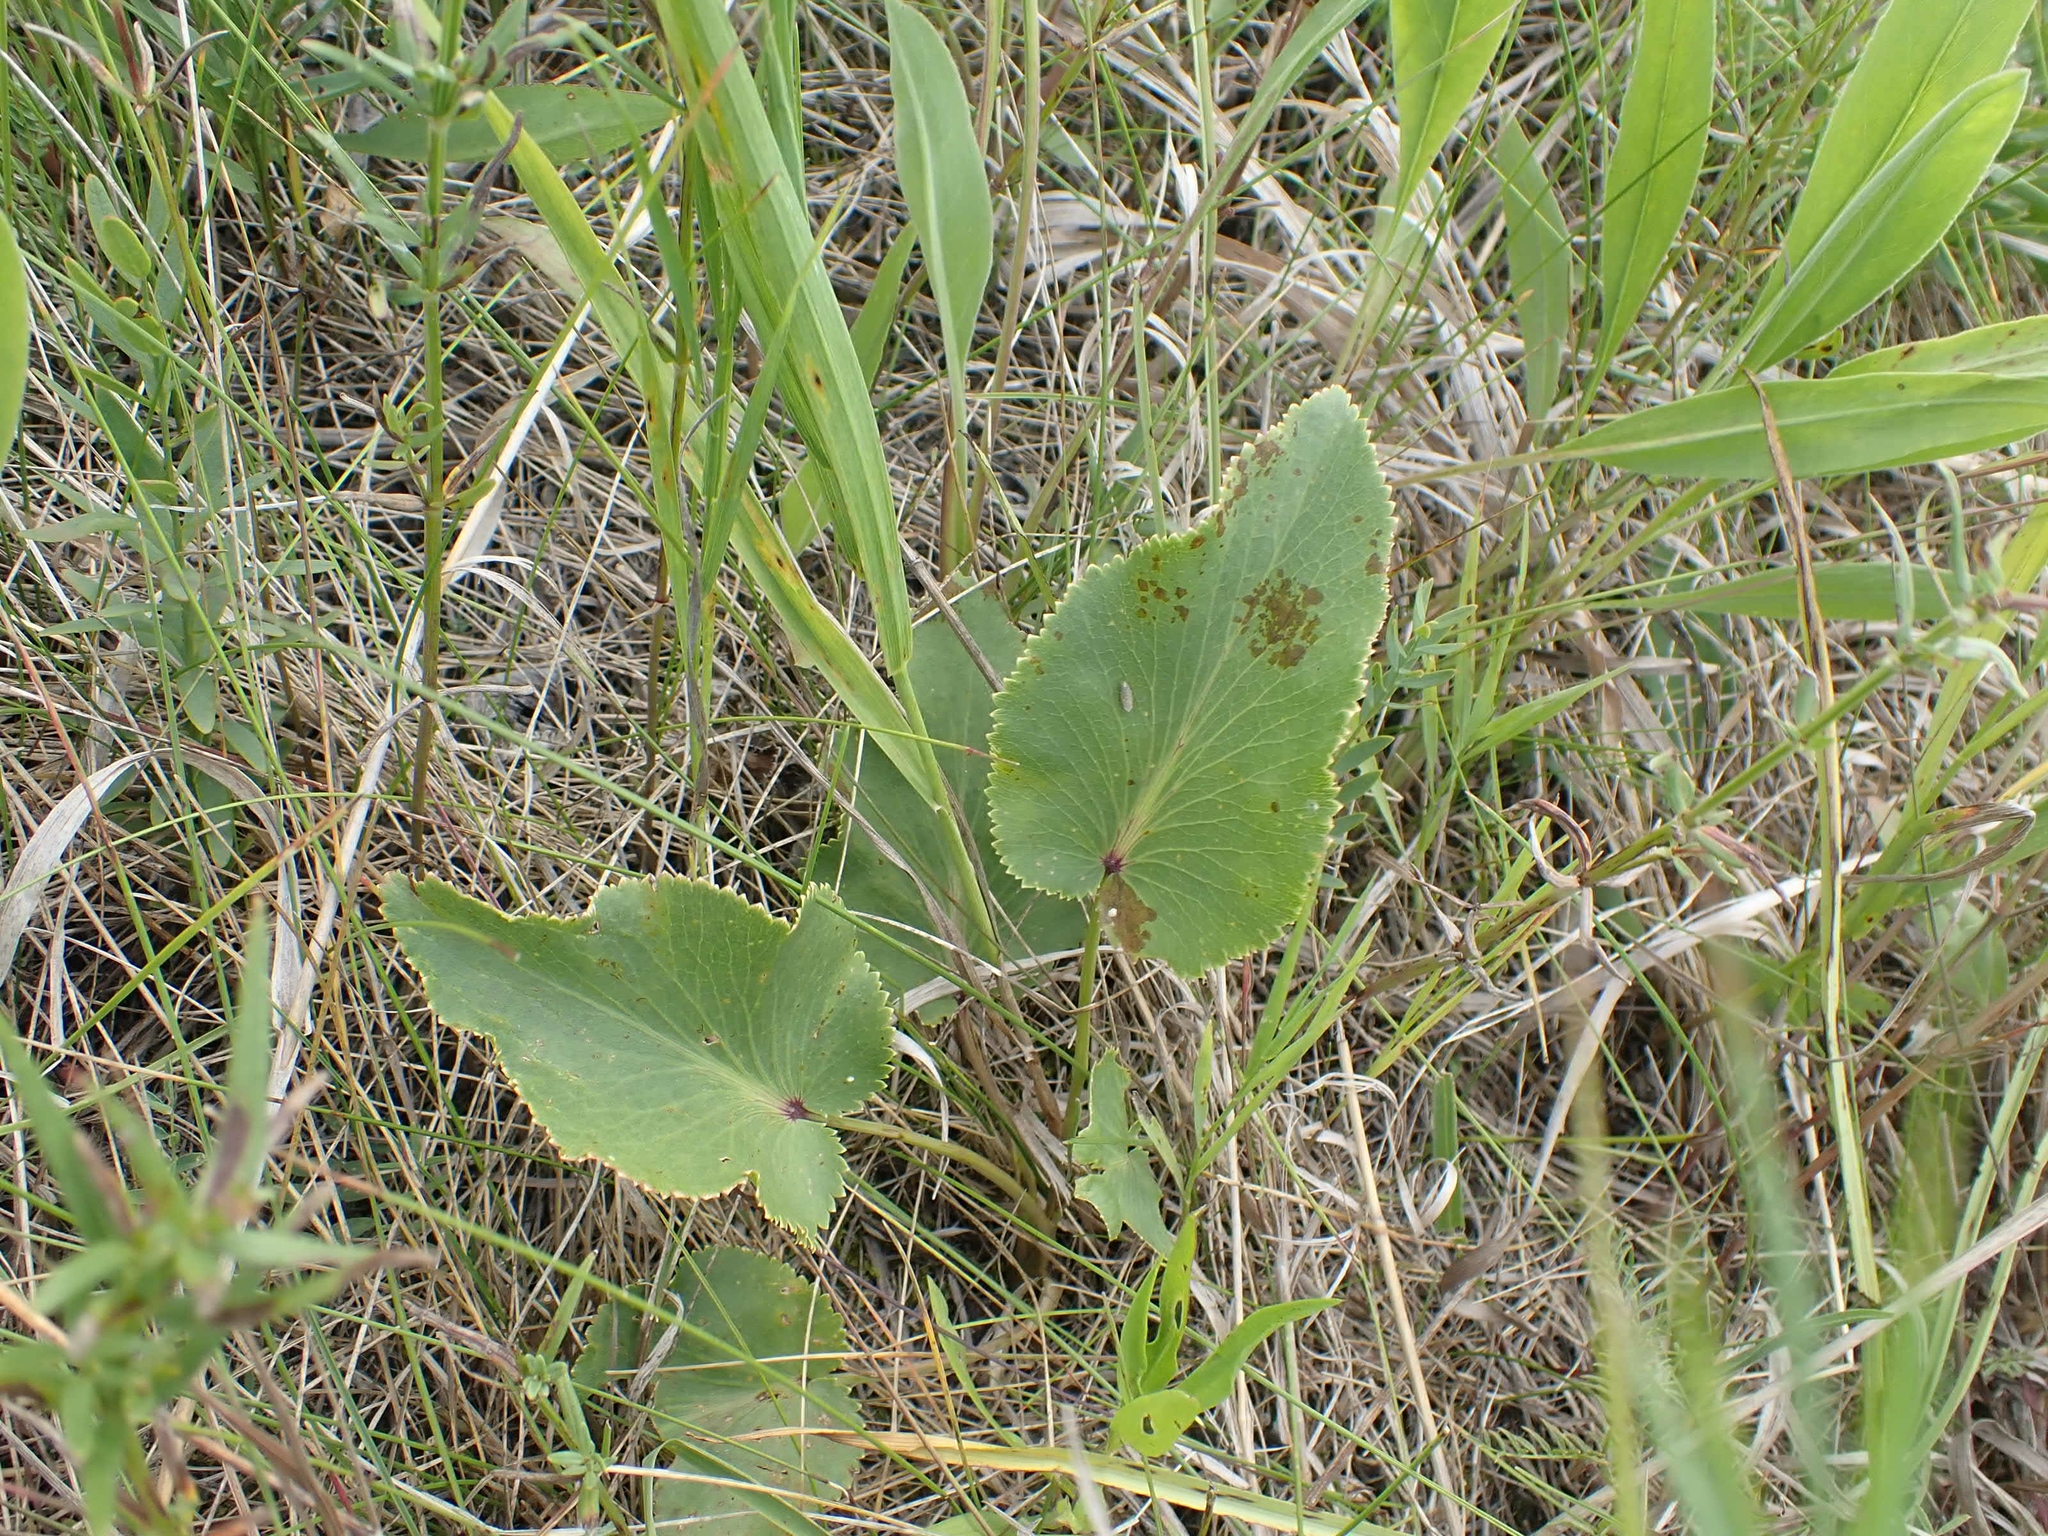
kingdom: Plantae
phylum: Tracheophyta
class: Magnoliopsida
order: Apiales
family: Apiaceae
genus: Zizia
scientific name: Zizia aptera
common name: Heart-leaved alexanders
